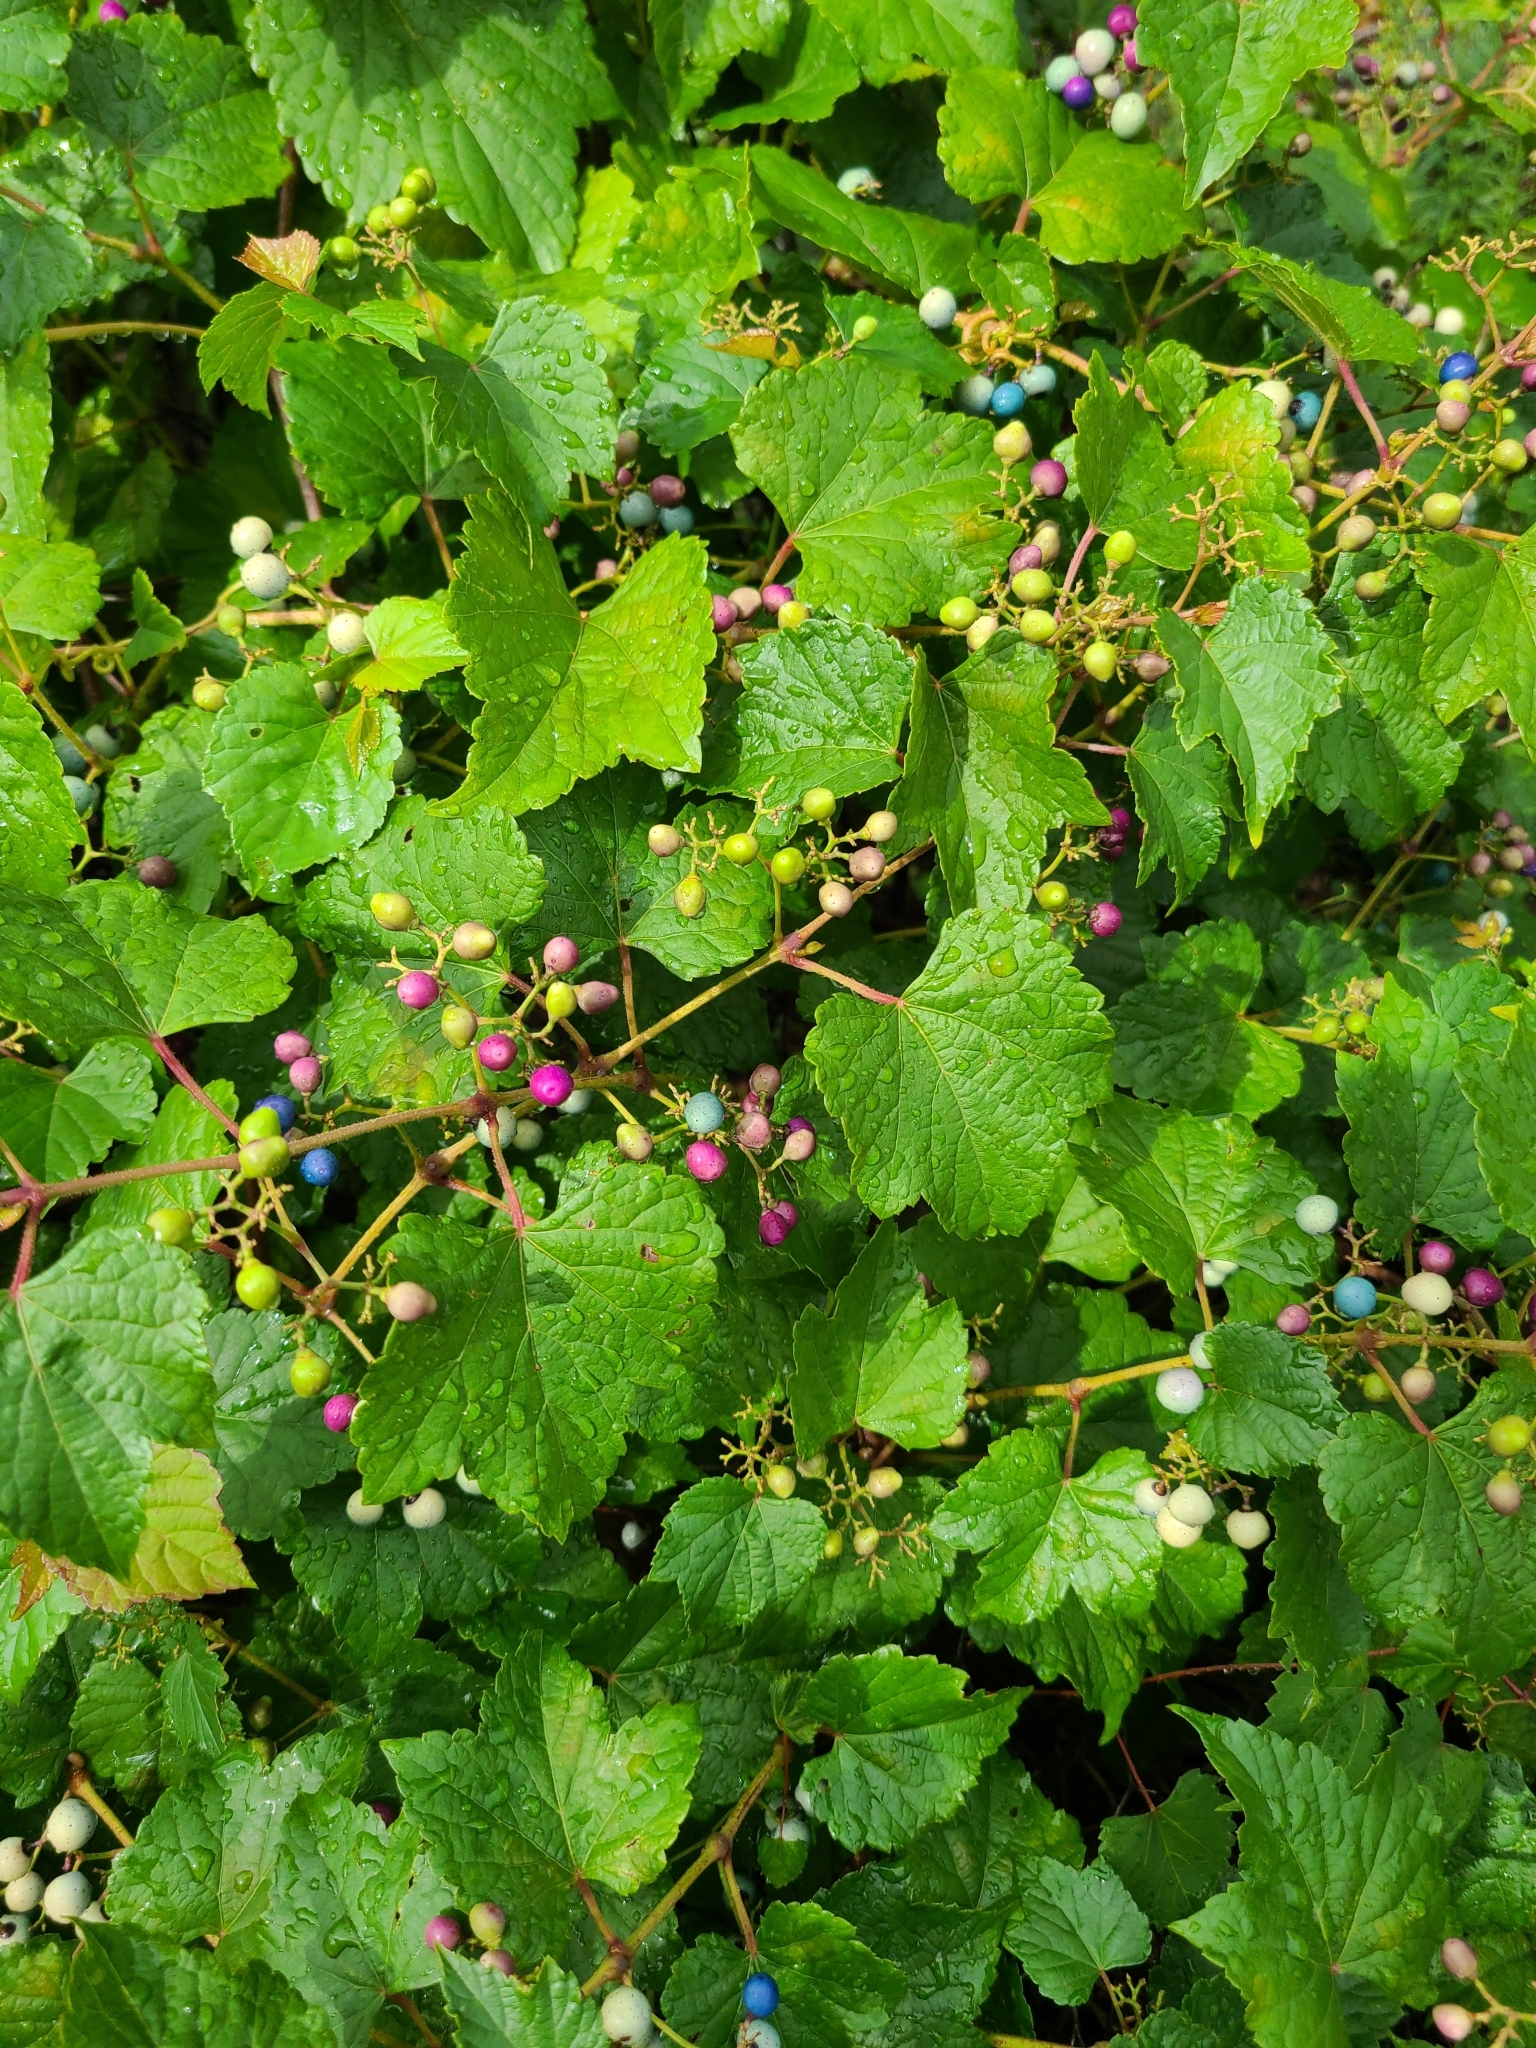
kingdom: Plantae
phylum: Tracheophyta
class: Magnoliopsida
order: Vitales
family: Vitaceae
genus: Ampelopsis
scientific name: Ampelopsis glandulosa
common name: Amur peppervine
